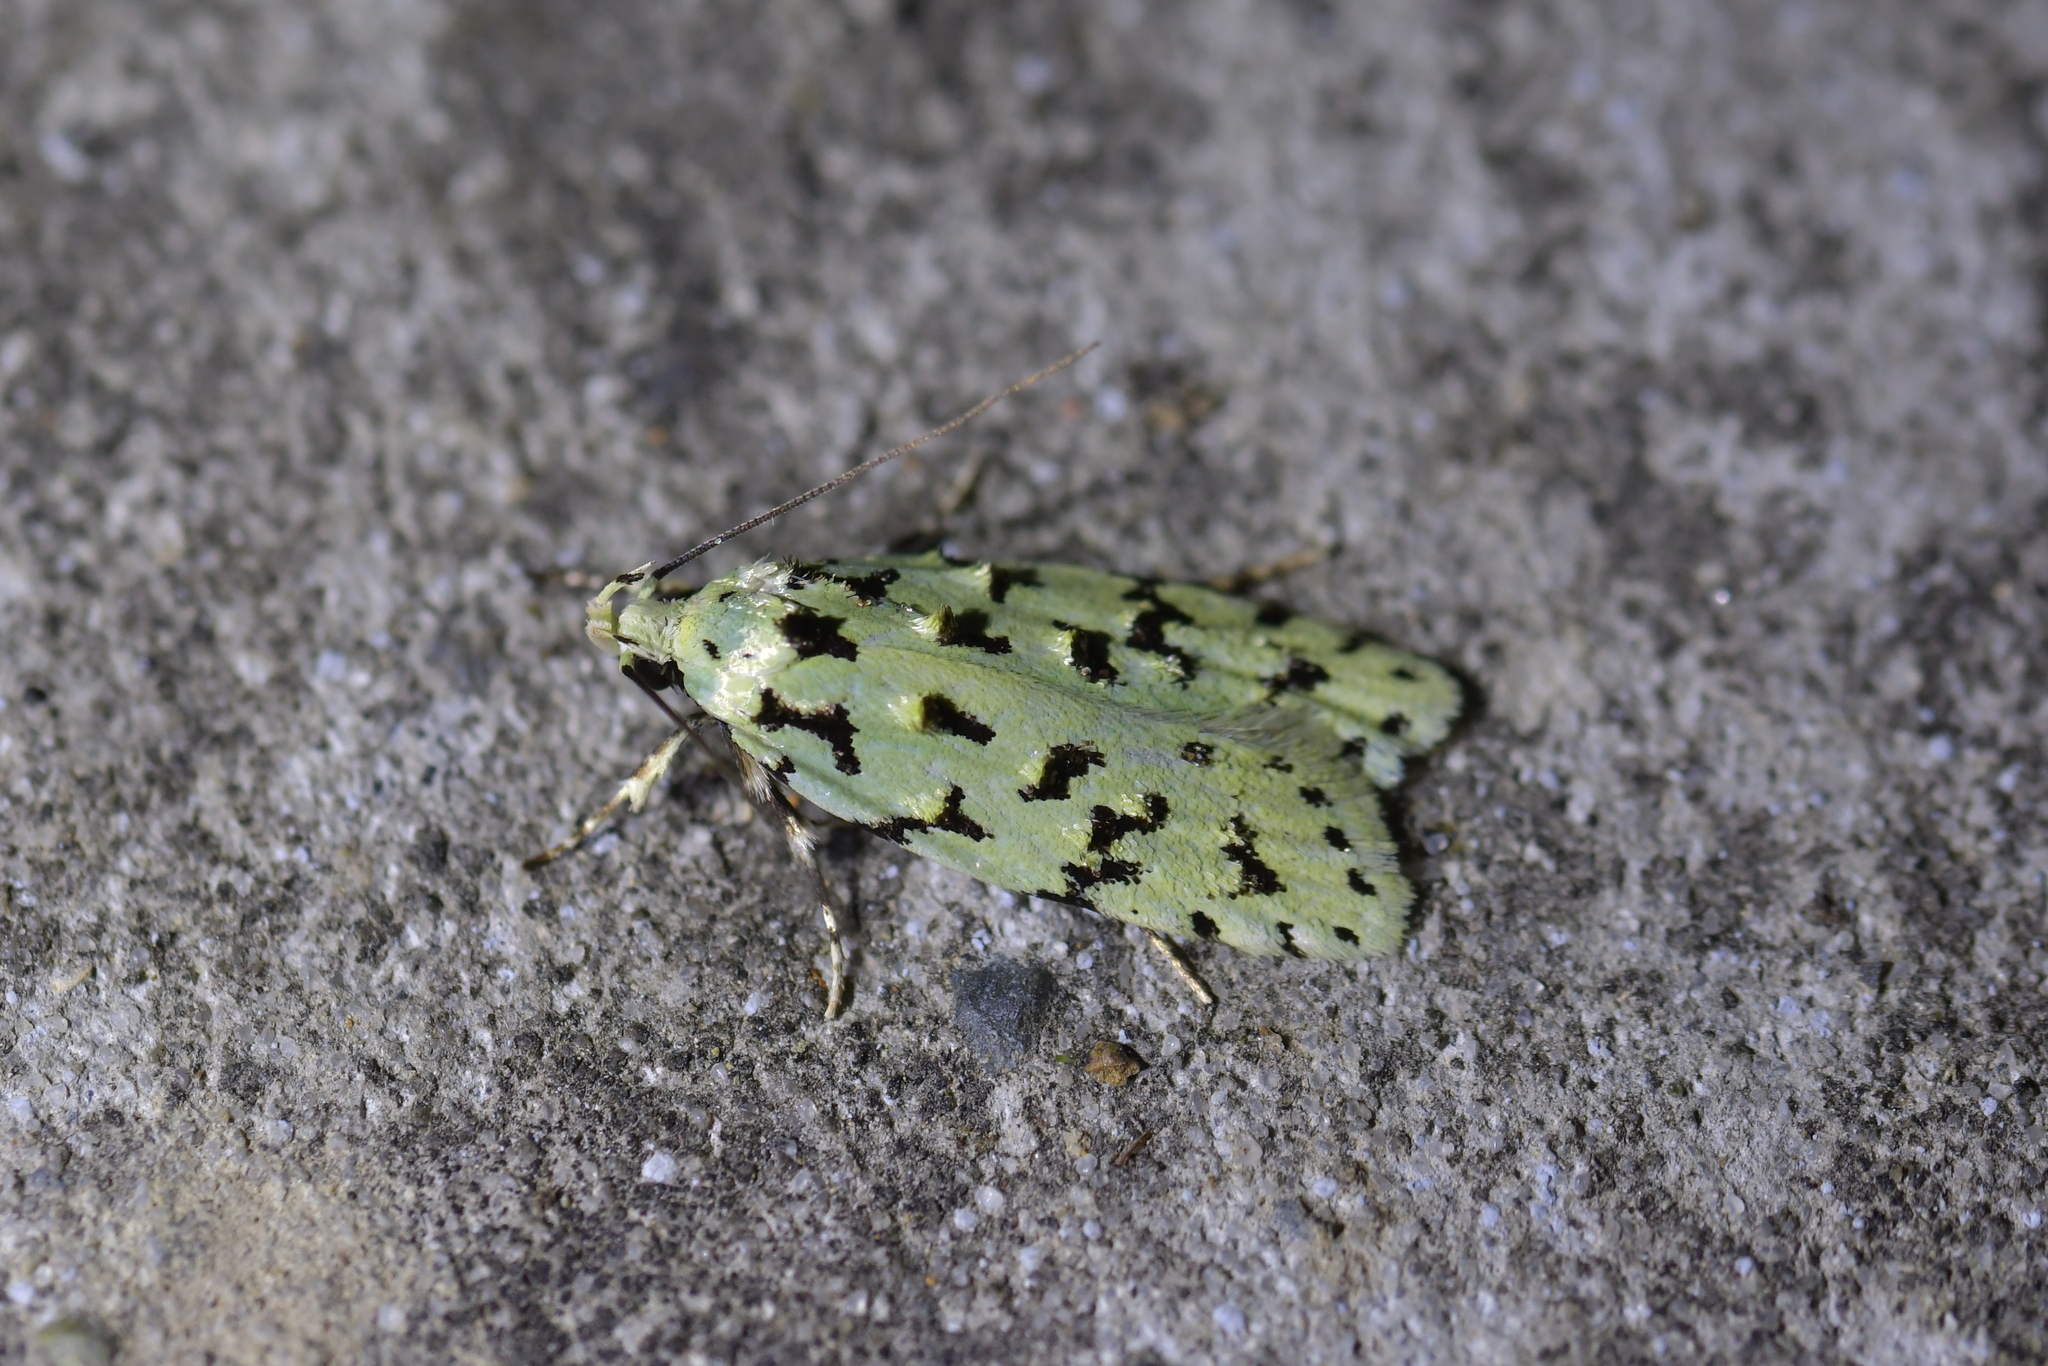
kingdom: Animalia
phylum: Arthropoda
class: Insecta
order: Lepidoptera
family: Oecophoridae
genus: Izatha
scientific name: Izatha peroneanella
